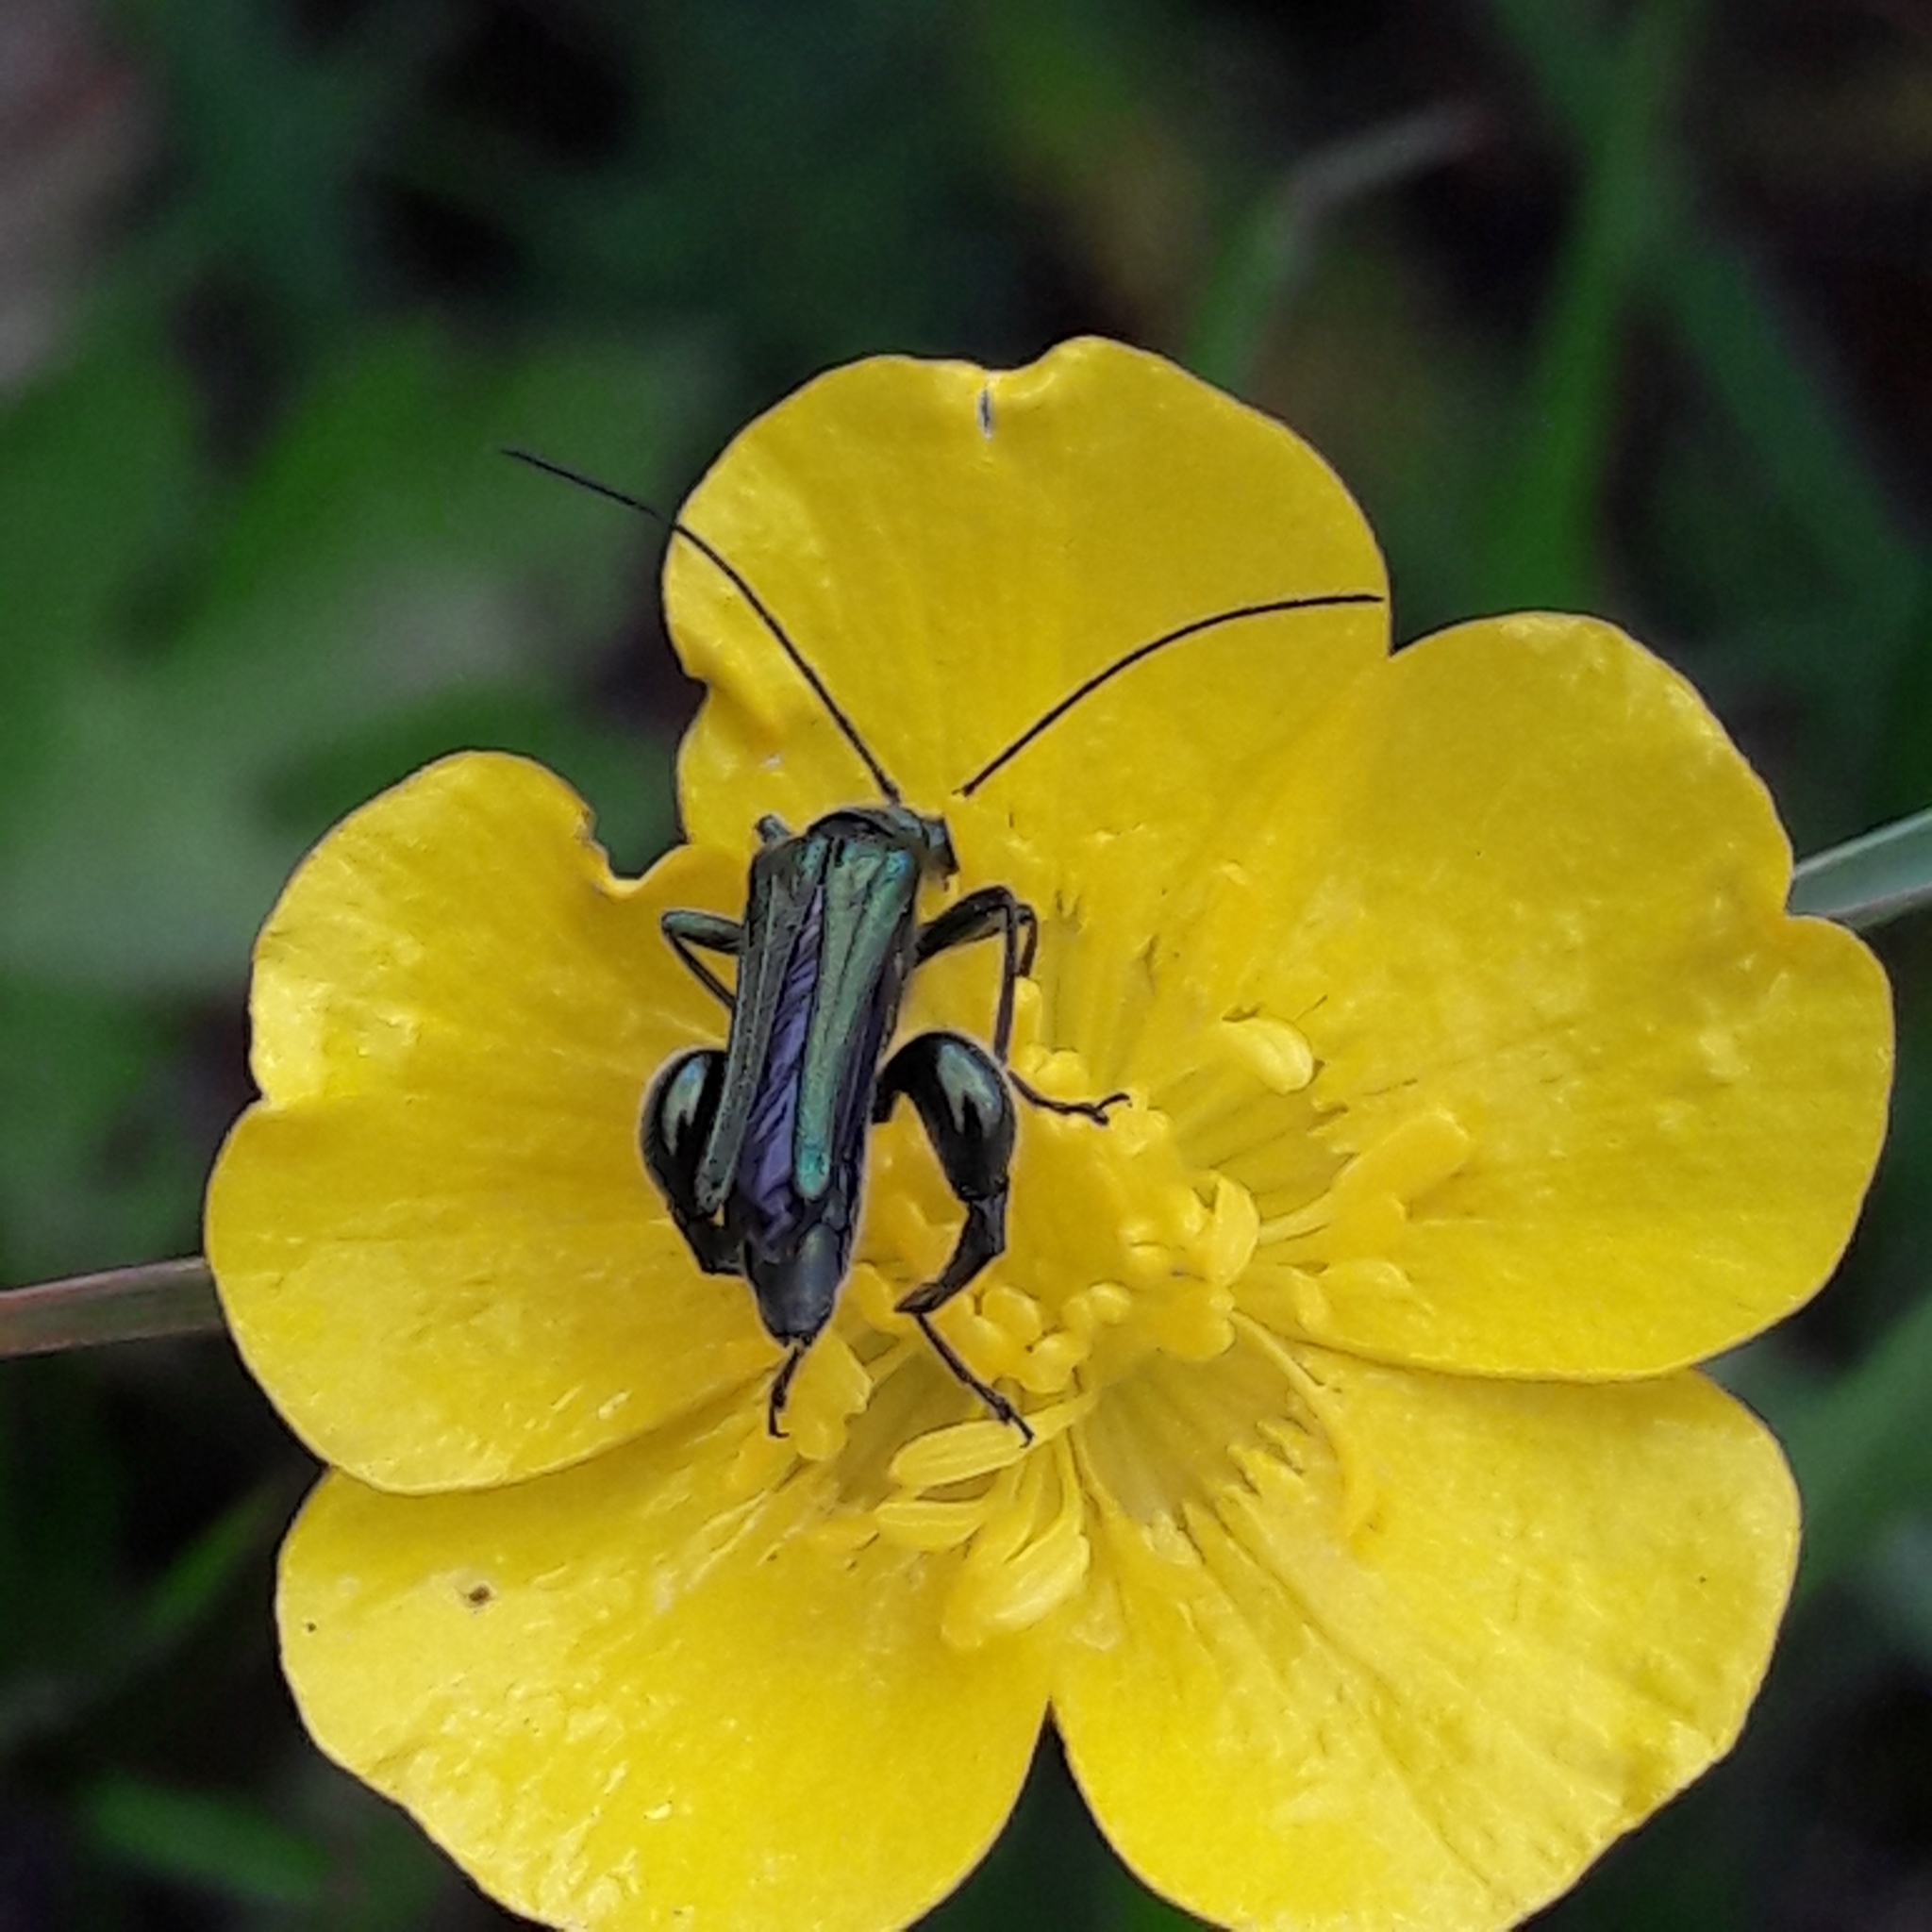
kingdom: Animalia
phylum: Arthropoda
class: Insecta
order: Coleoptera
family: Oedemeridae
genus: Oedemera
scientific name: Oedemera nobilis
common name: Swollen-thighed beetle
